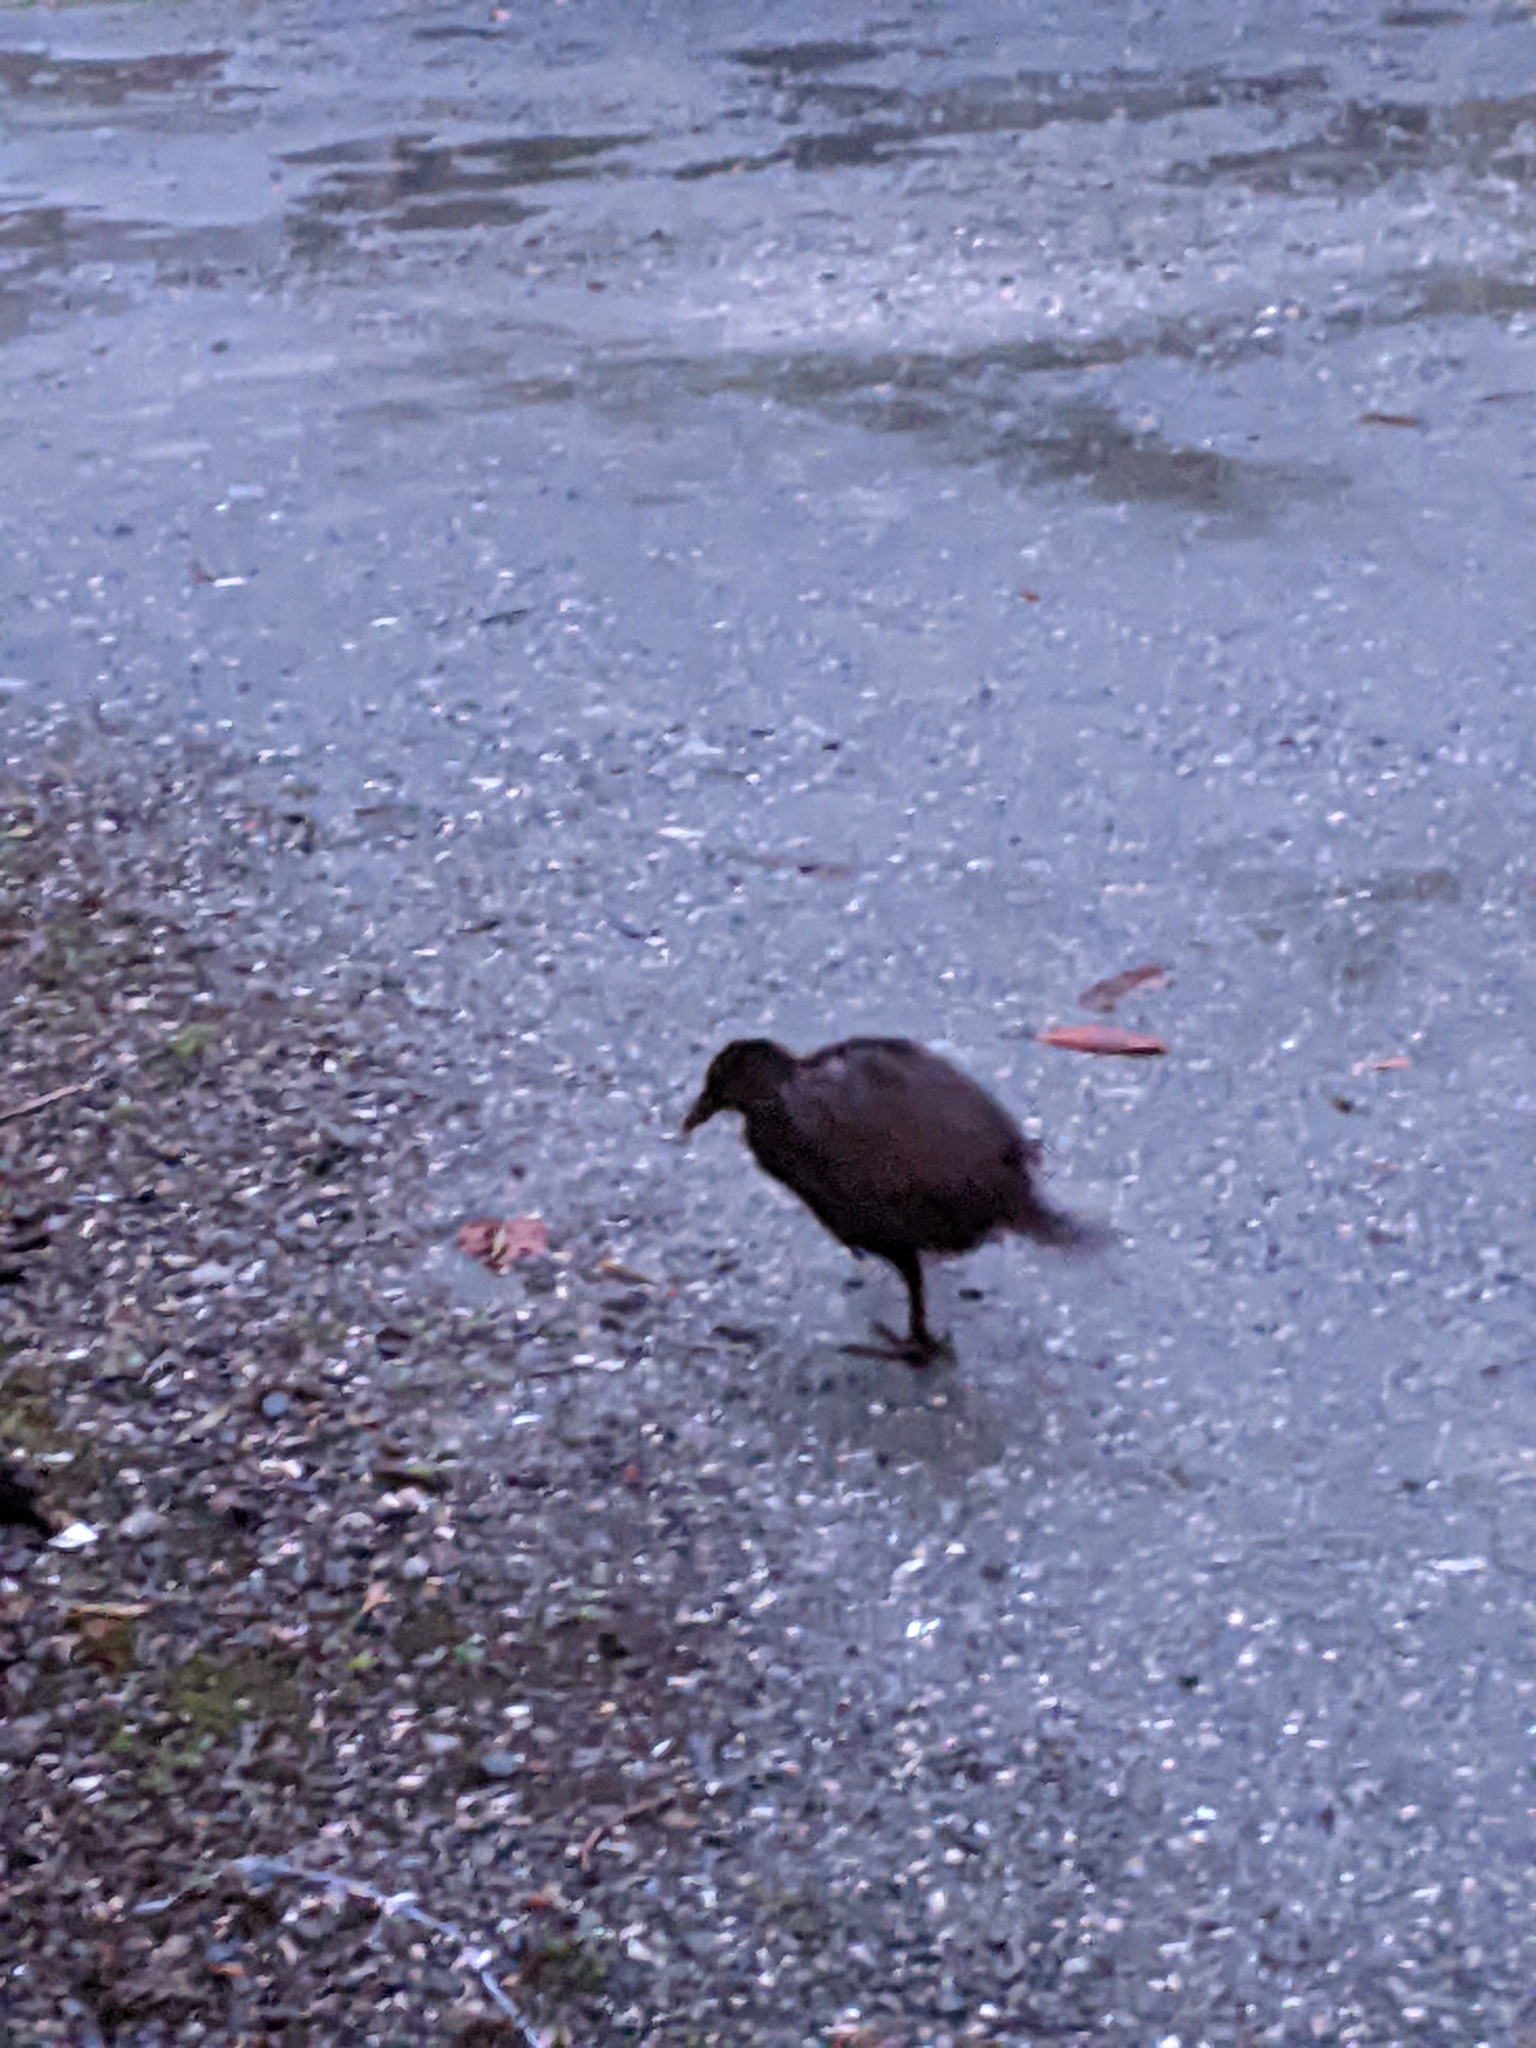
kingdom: Animalia
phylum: Chordata
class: Aves
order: Gruiformes
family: Rallidae
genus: Gallirallus
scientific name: Gallirallus australis
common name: Weka
